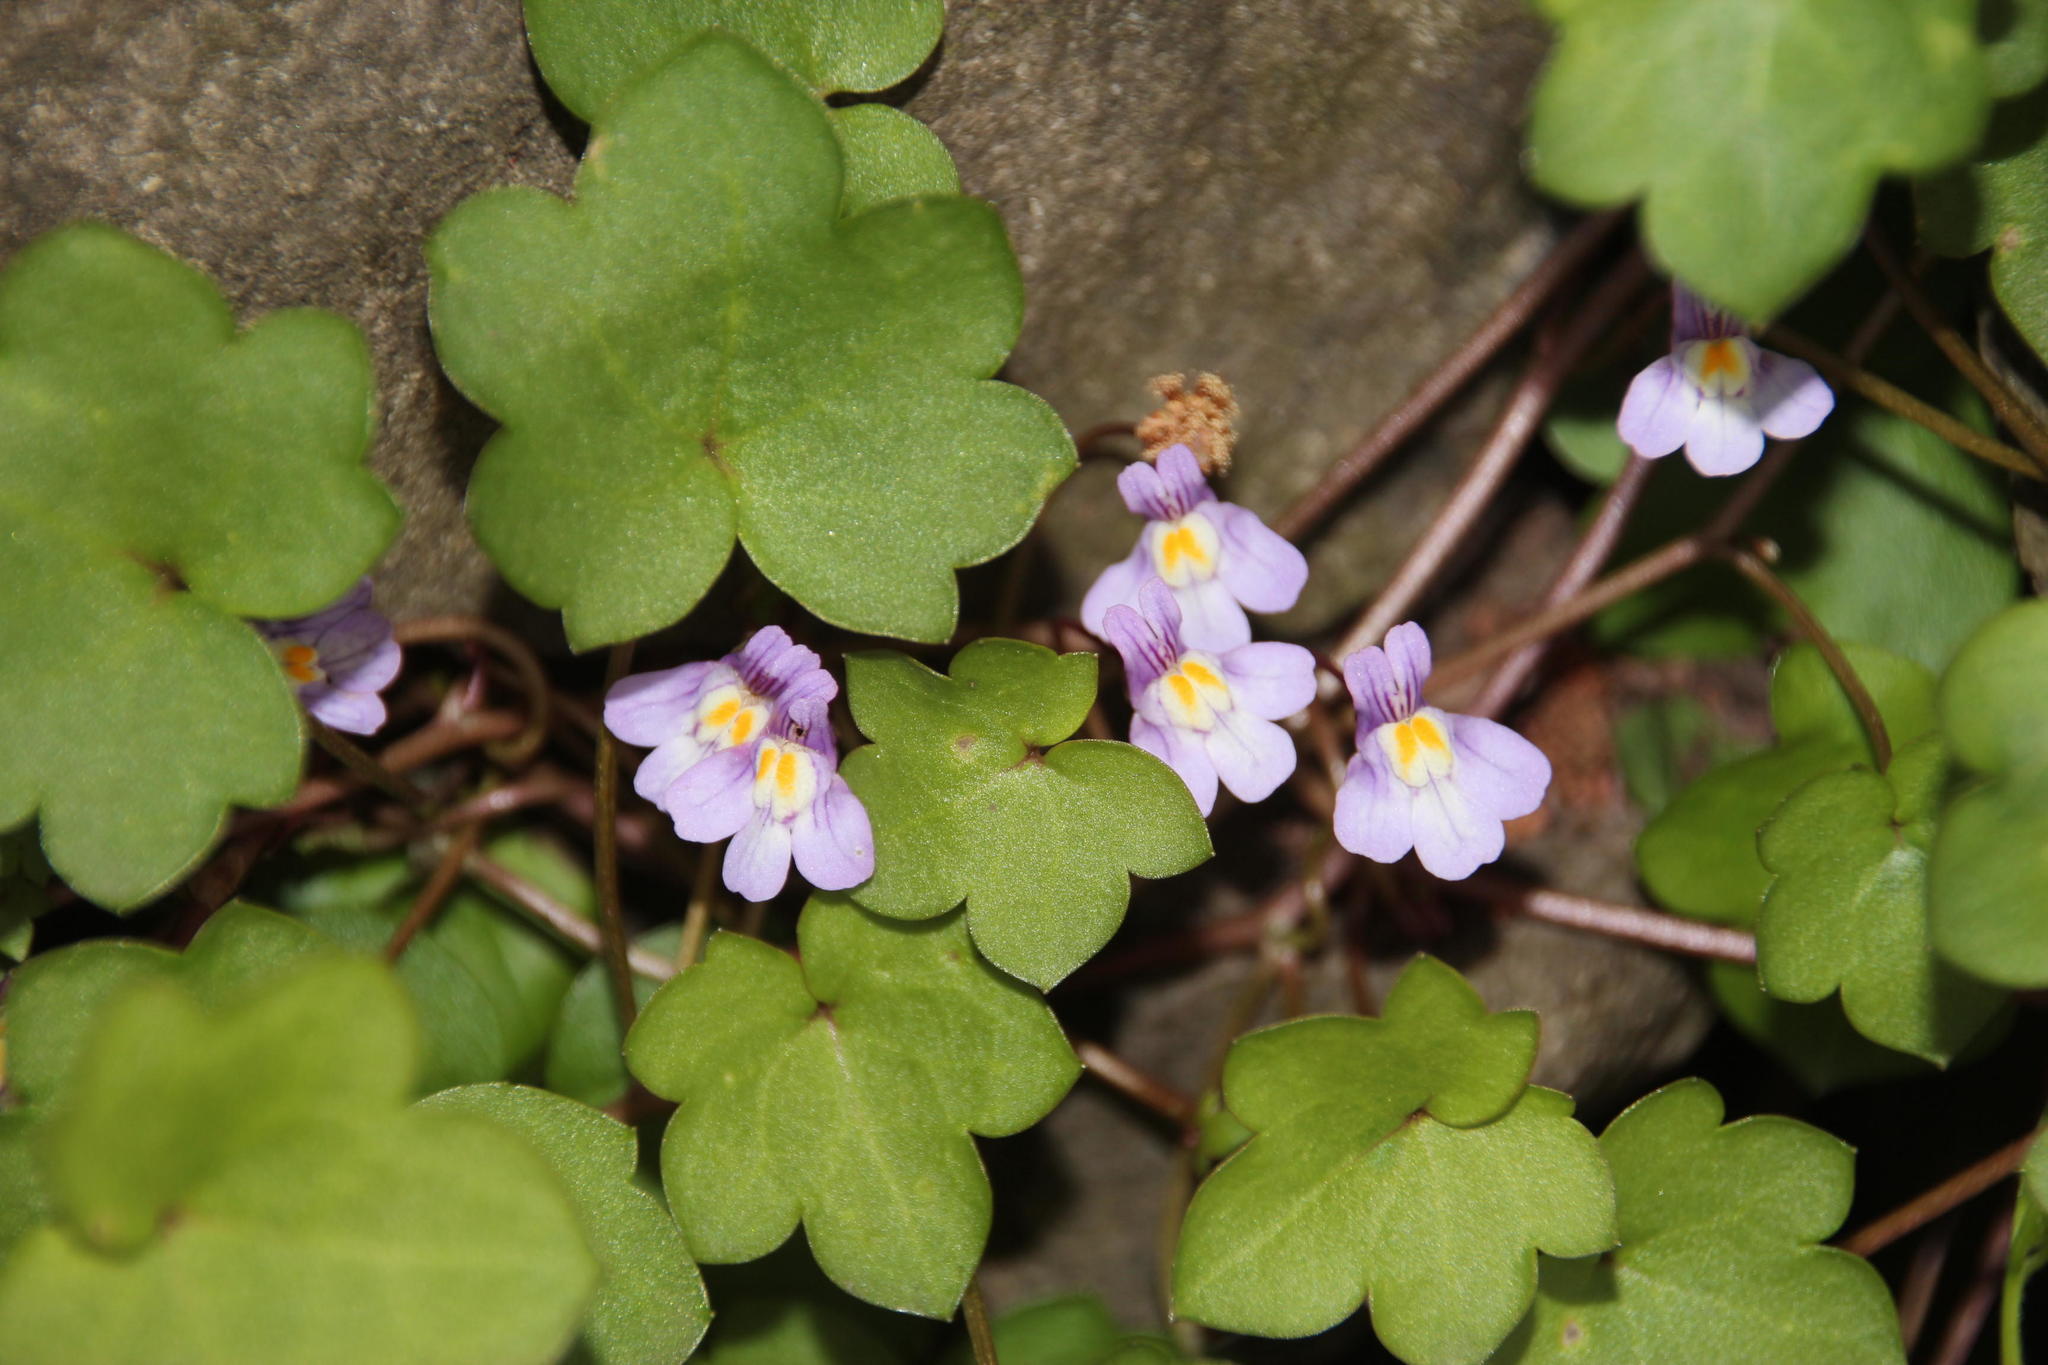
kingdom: Plantae
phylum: Tracheophyta
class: Magnoliopsida
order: Lamiales
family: Plantaginaceae
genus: Cymbalaria
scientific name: Cymbalaria muralis
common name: Ivy-leaved toadflax
